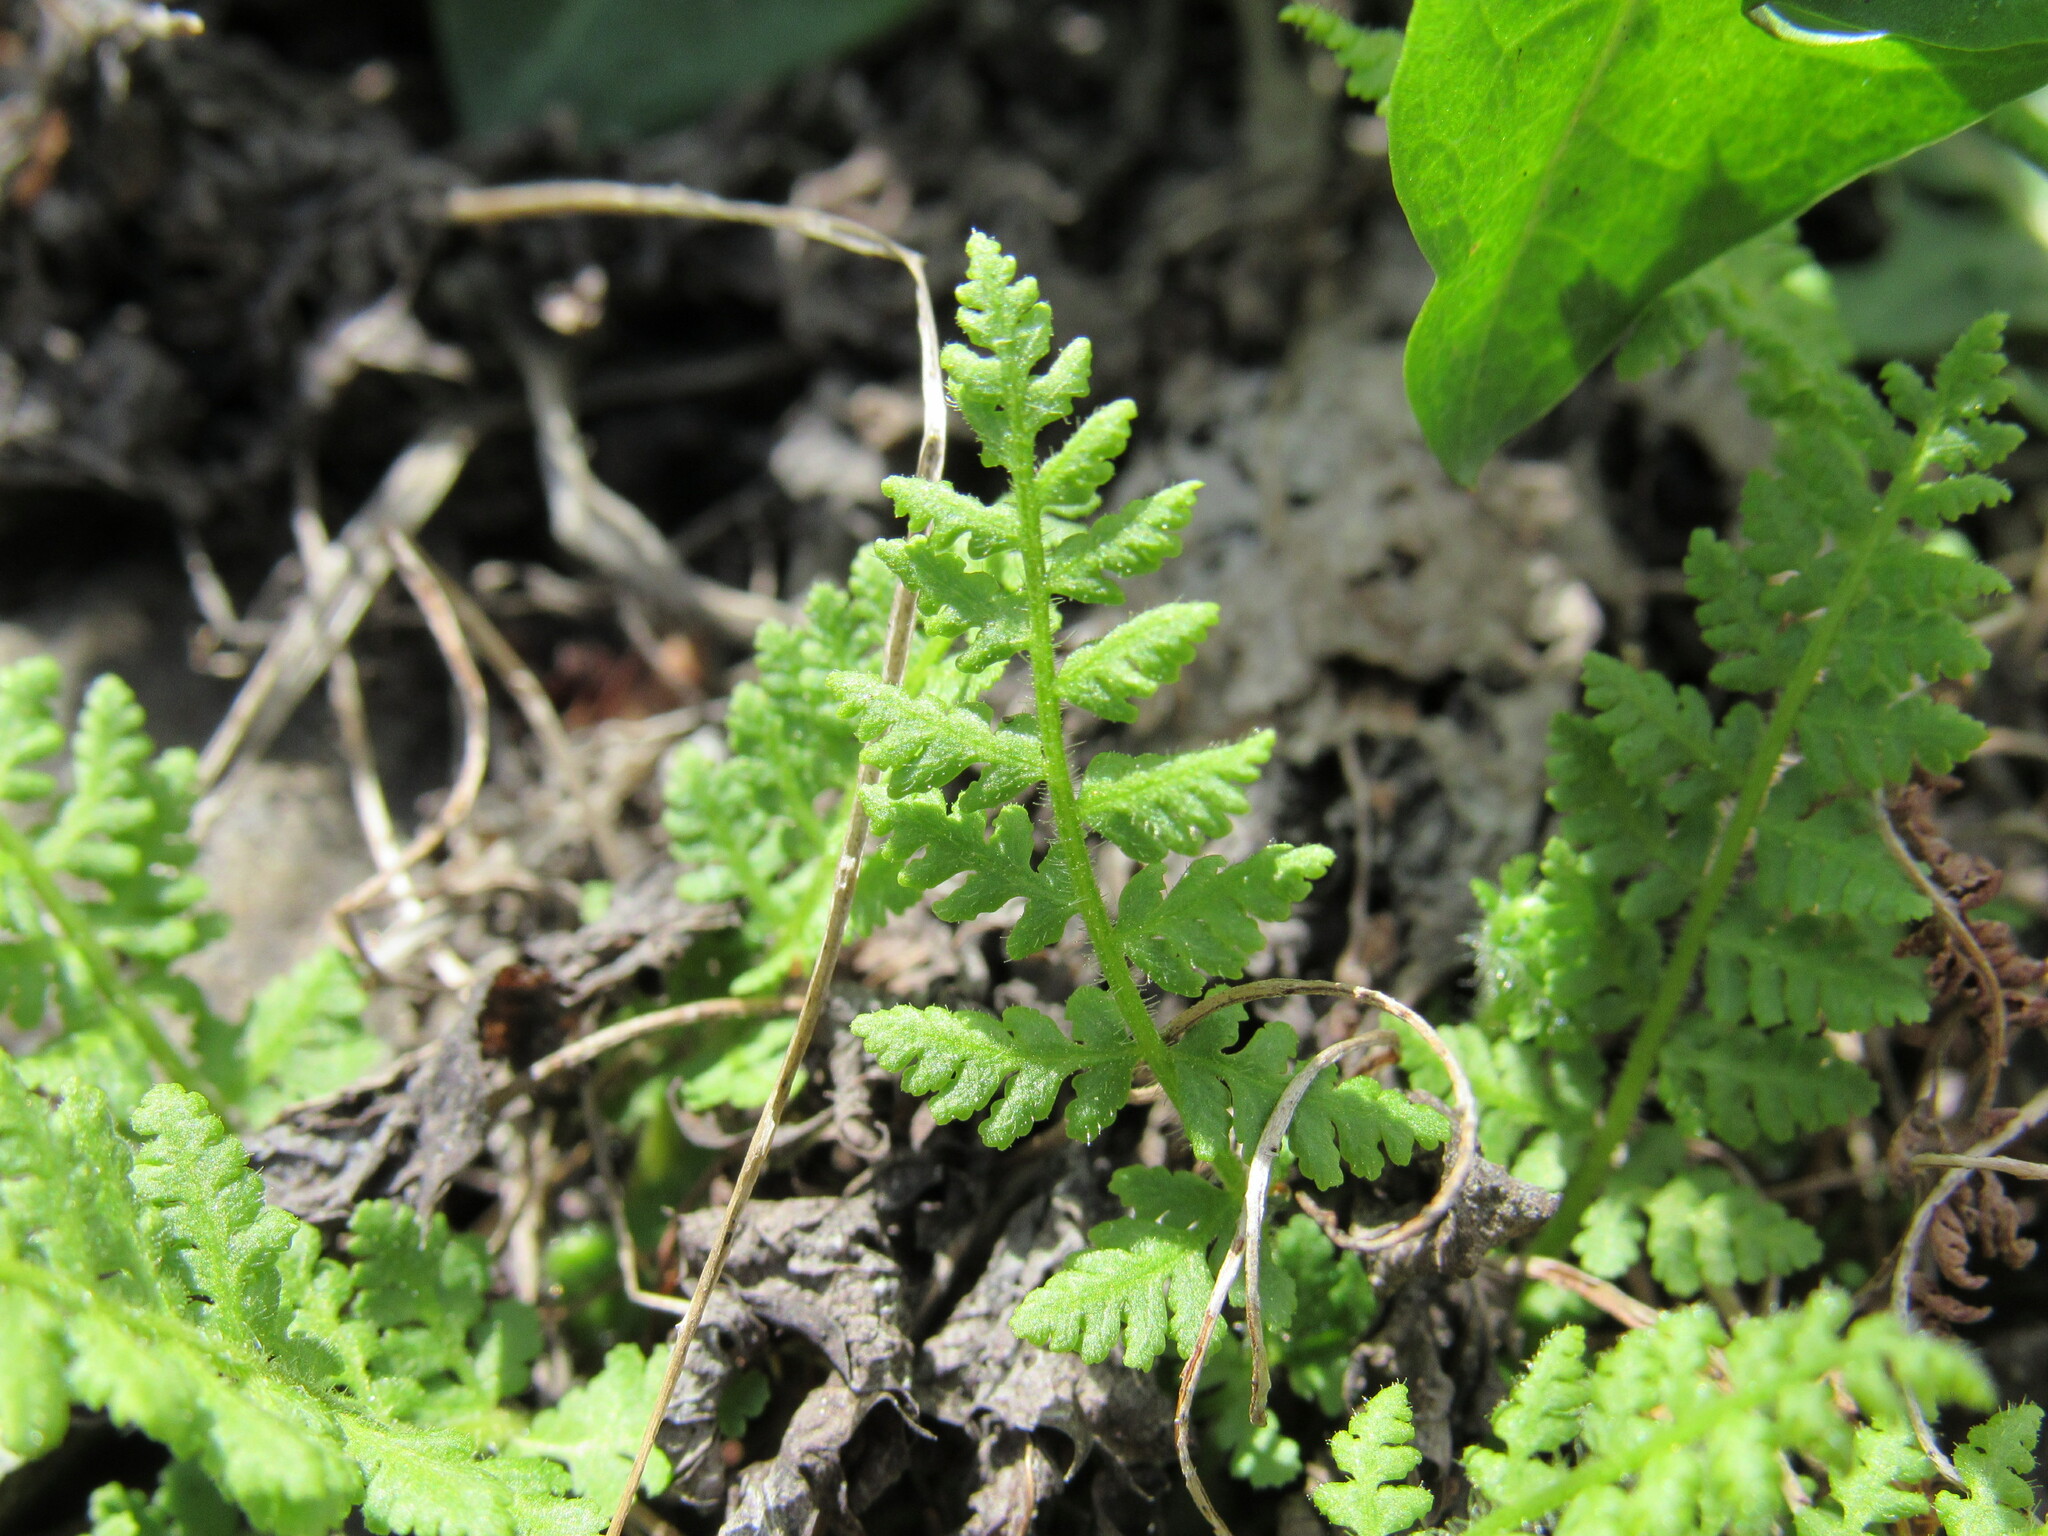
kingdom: Plantae
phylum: Tracheophyta
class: Polypodiopsida
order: Polypodiales
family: Woodsiaceae
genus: Physematium
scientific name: Physematium scopulinum
